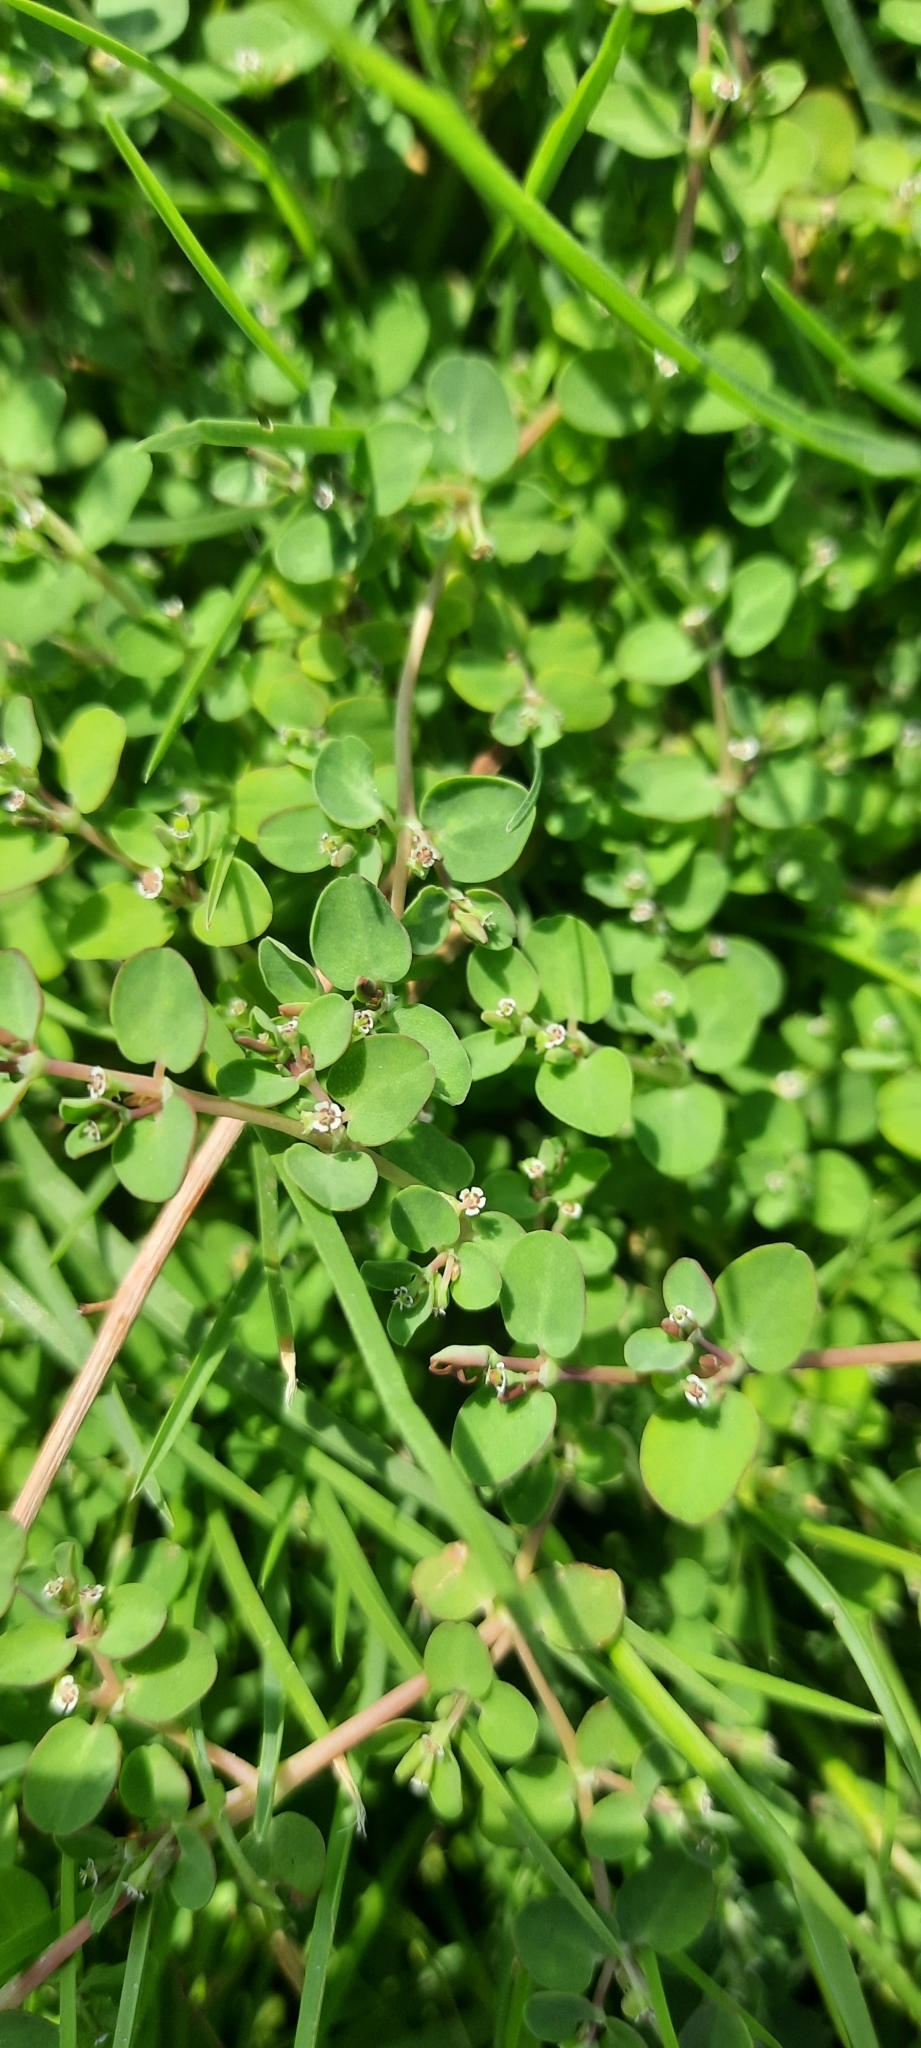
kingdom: Plantae
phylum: Tracheophyta
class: Magnoliopsida
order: Malpighiales
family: Euphorbiaceae
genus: Euphorbia
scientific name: Euphorbia serpens
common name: Matted sandmat
